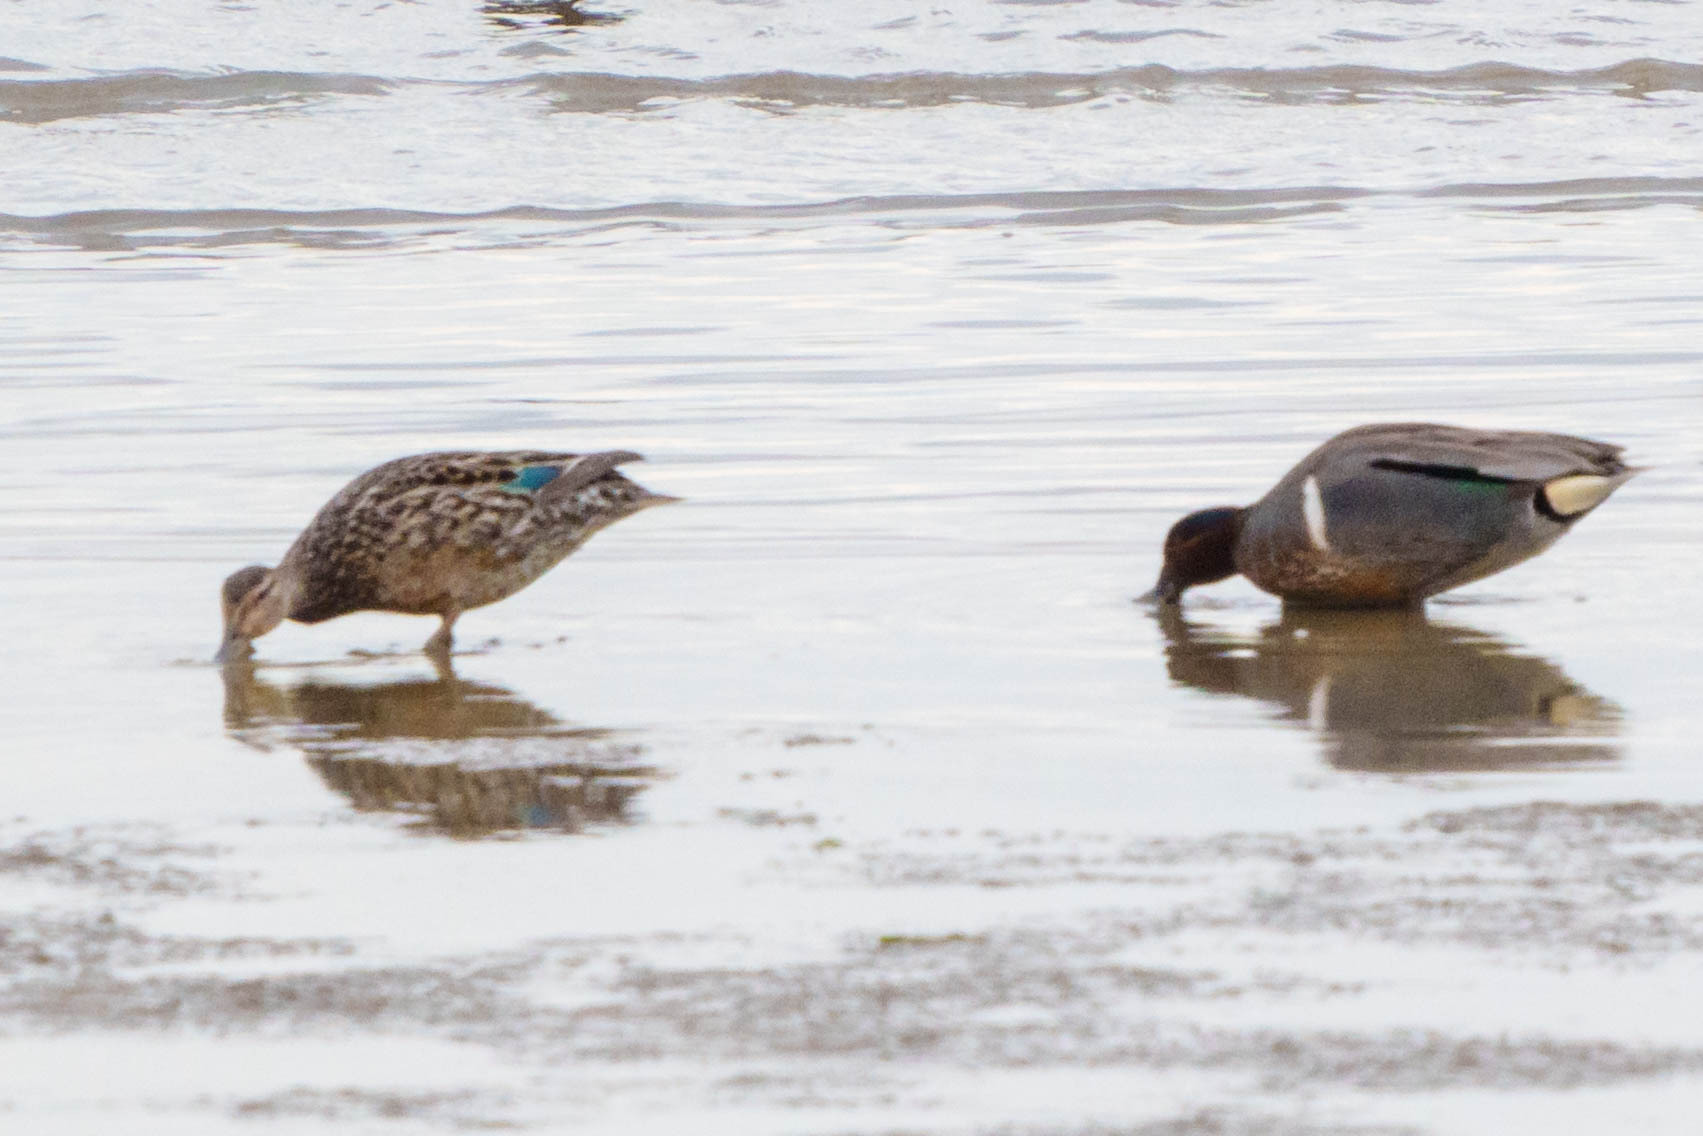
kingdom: Animalia
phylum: Chordata
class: Aves
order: Anseriformes
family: Anatidae
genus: Anas
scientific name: Anas crecca
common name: Eurasian teal
